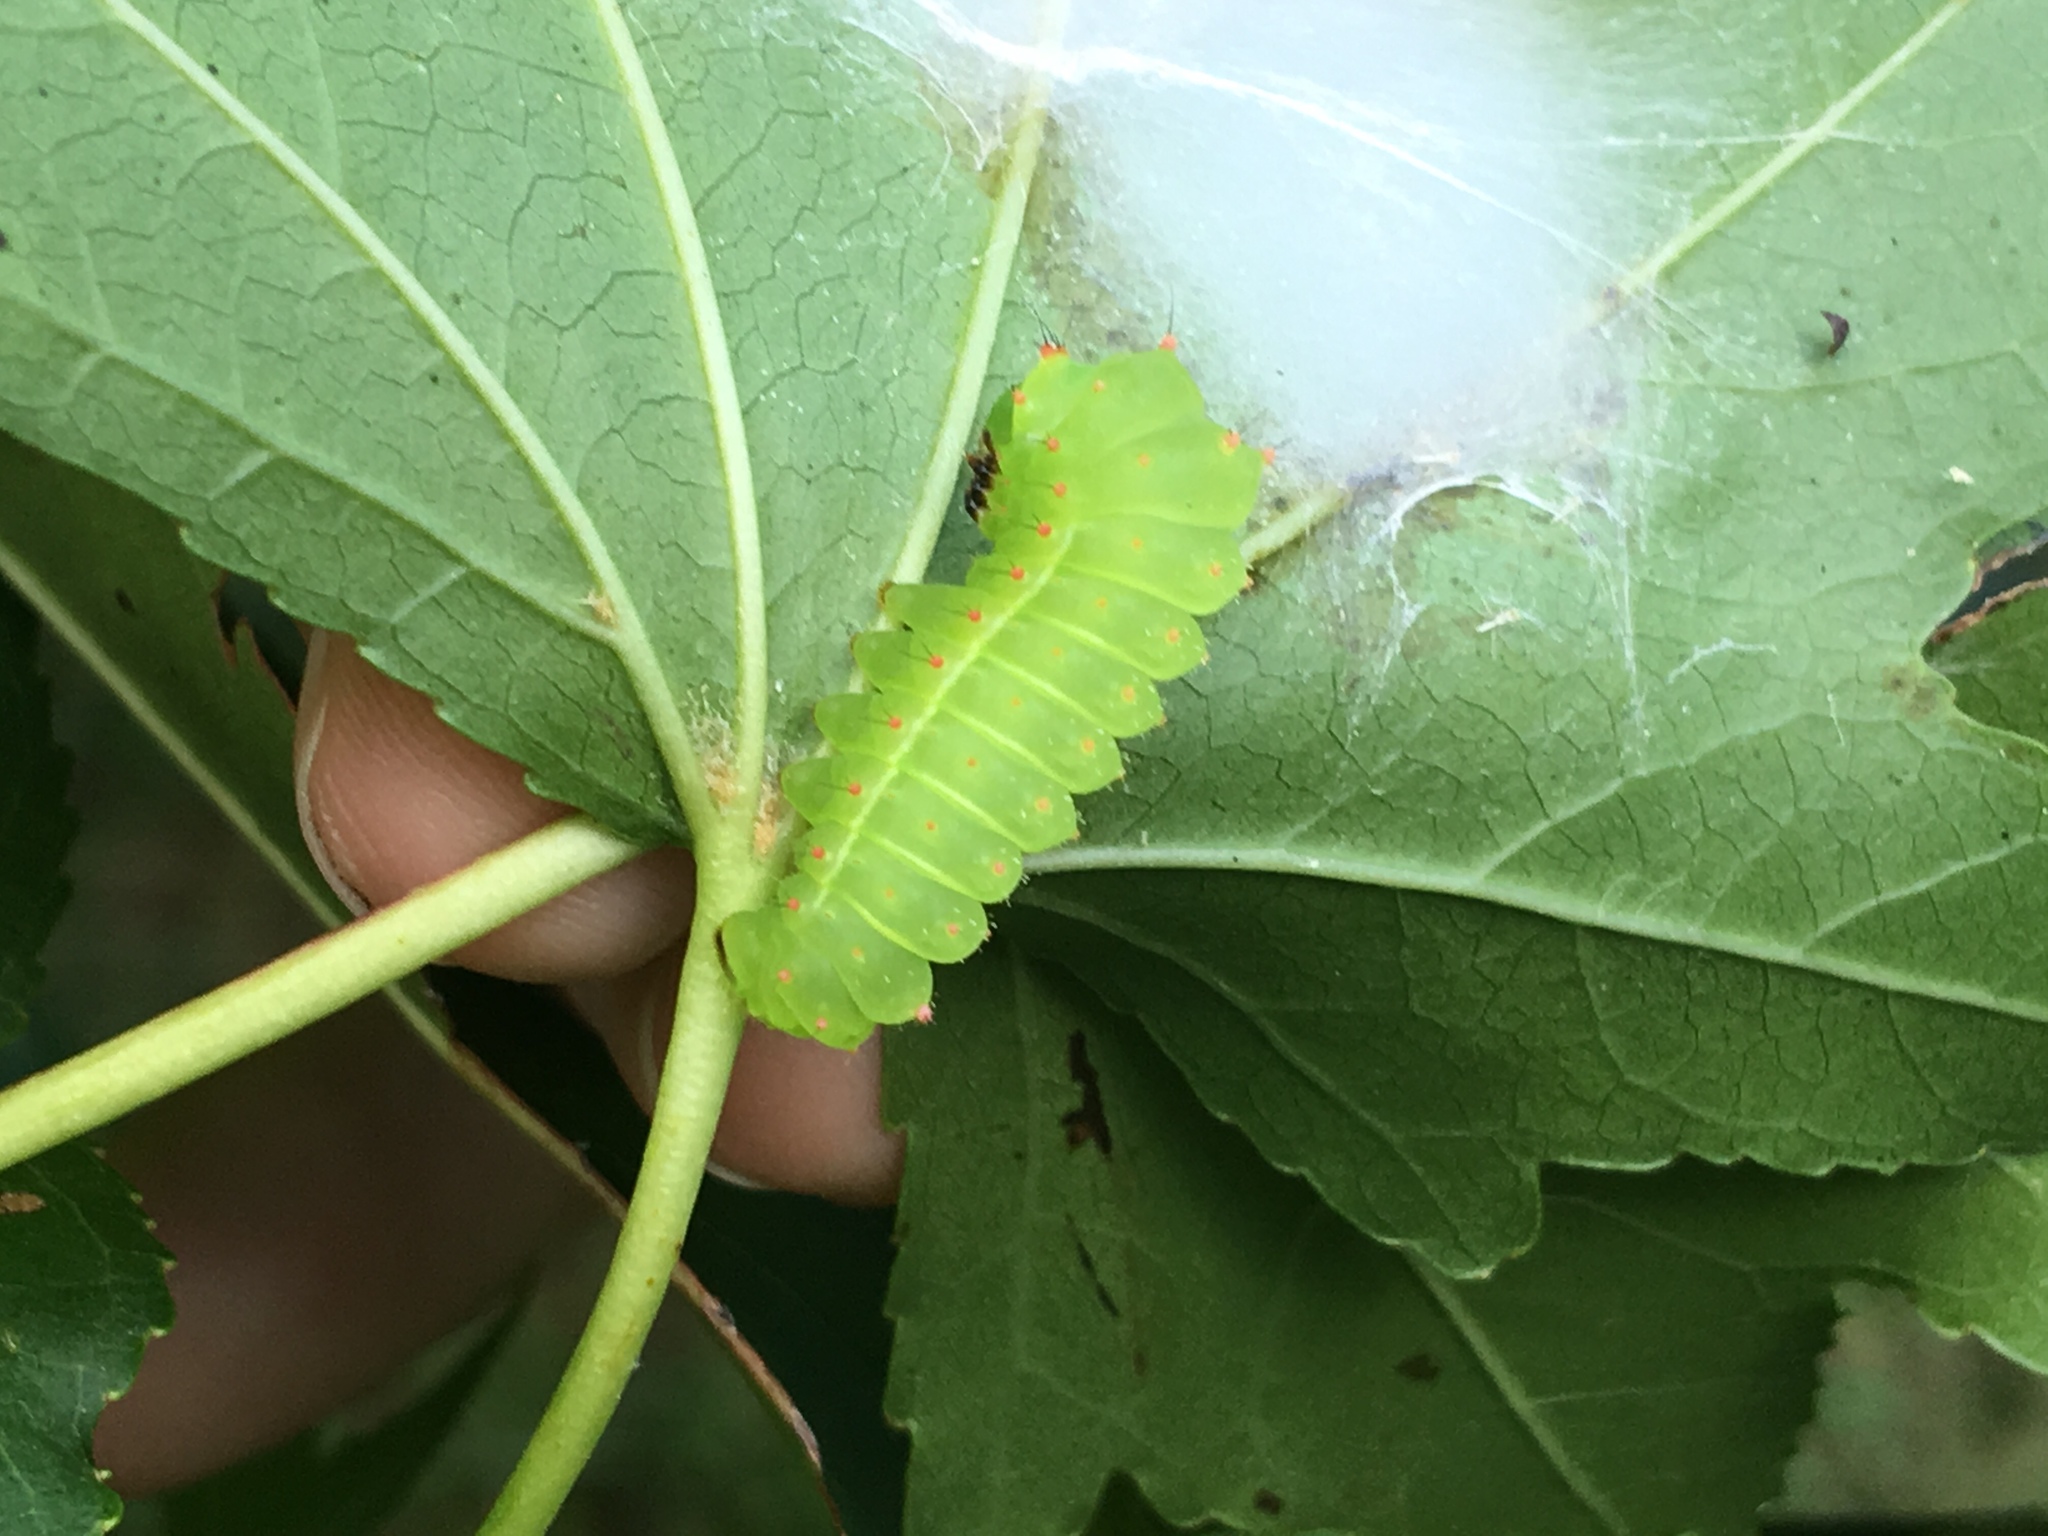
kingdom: Animalia
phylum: Arthropoda
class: Insecta
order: Lepidoptera
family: Saturniidae
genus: Actias
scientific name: Actias luna
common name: Luna moth
